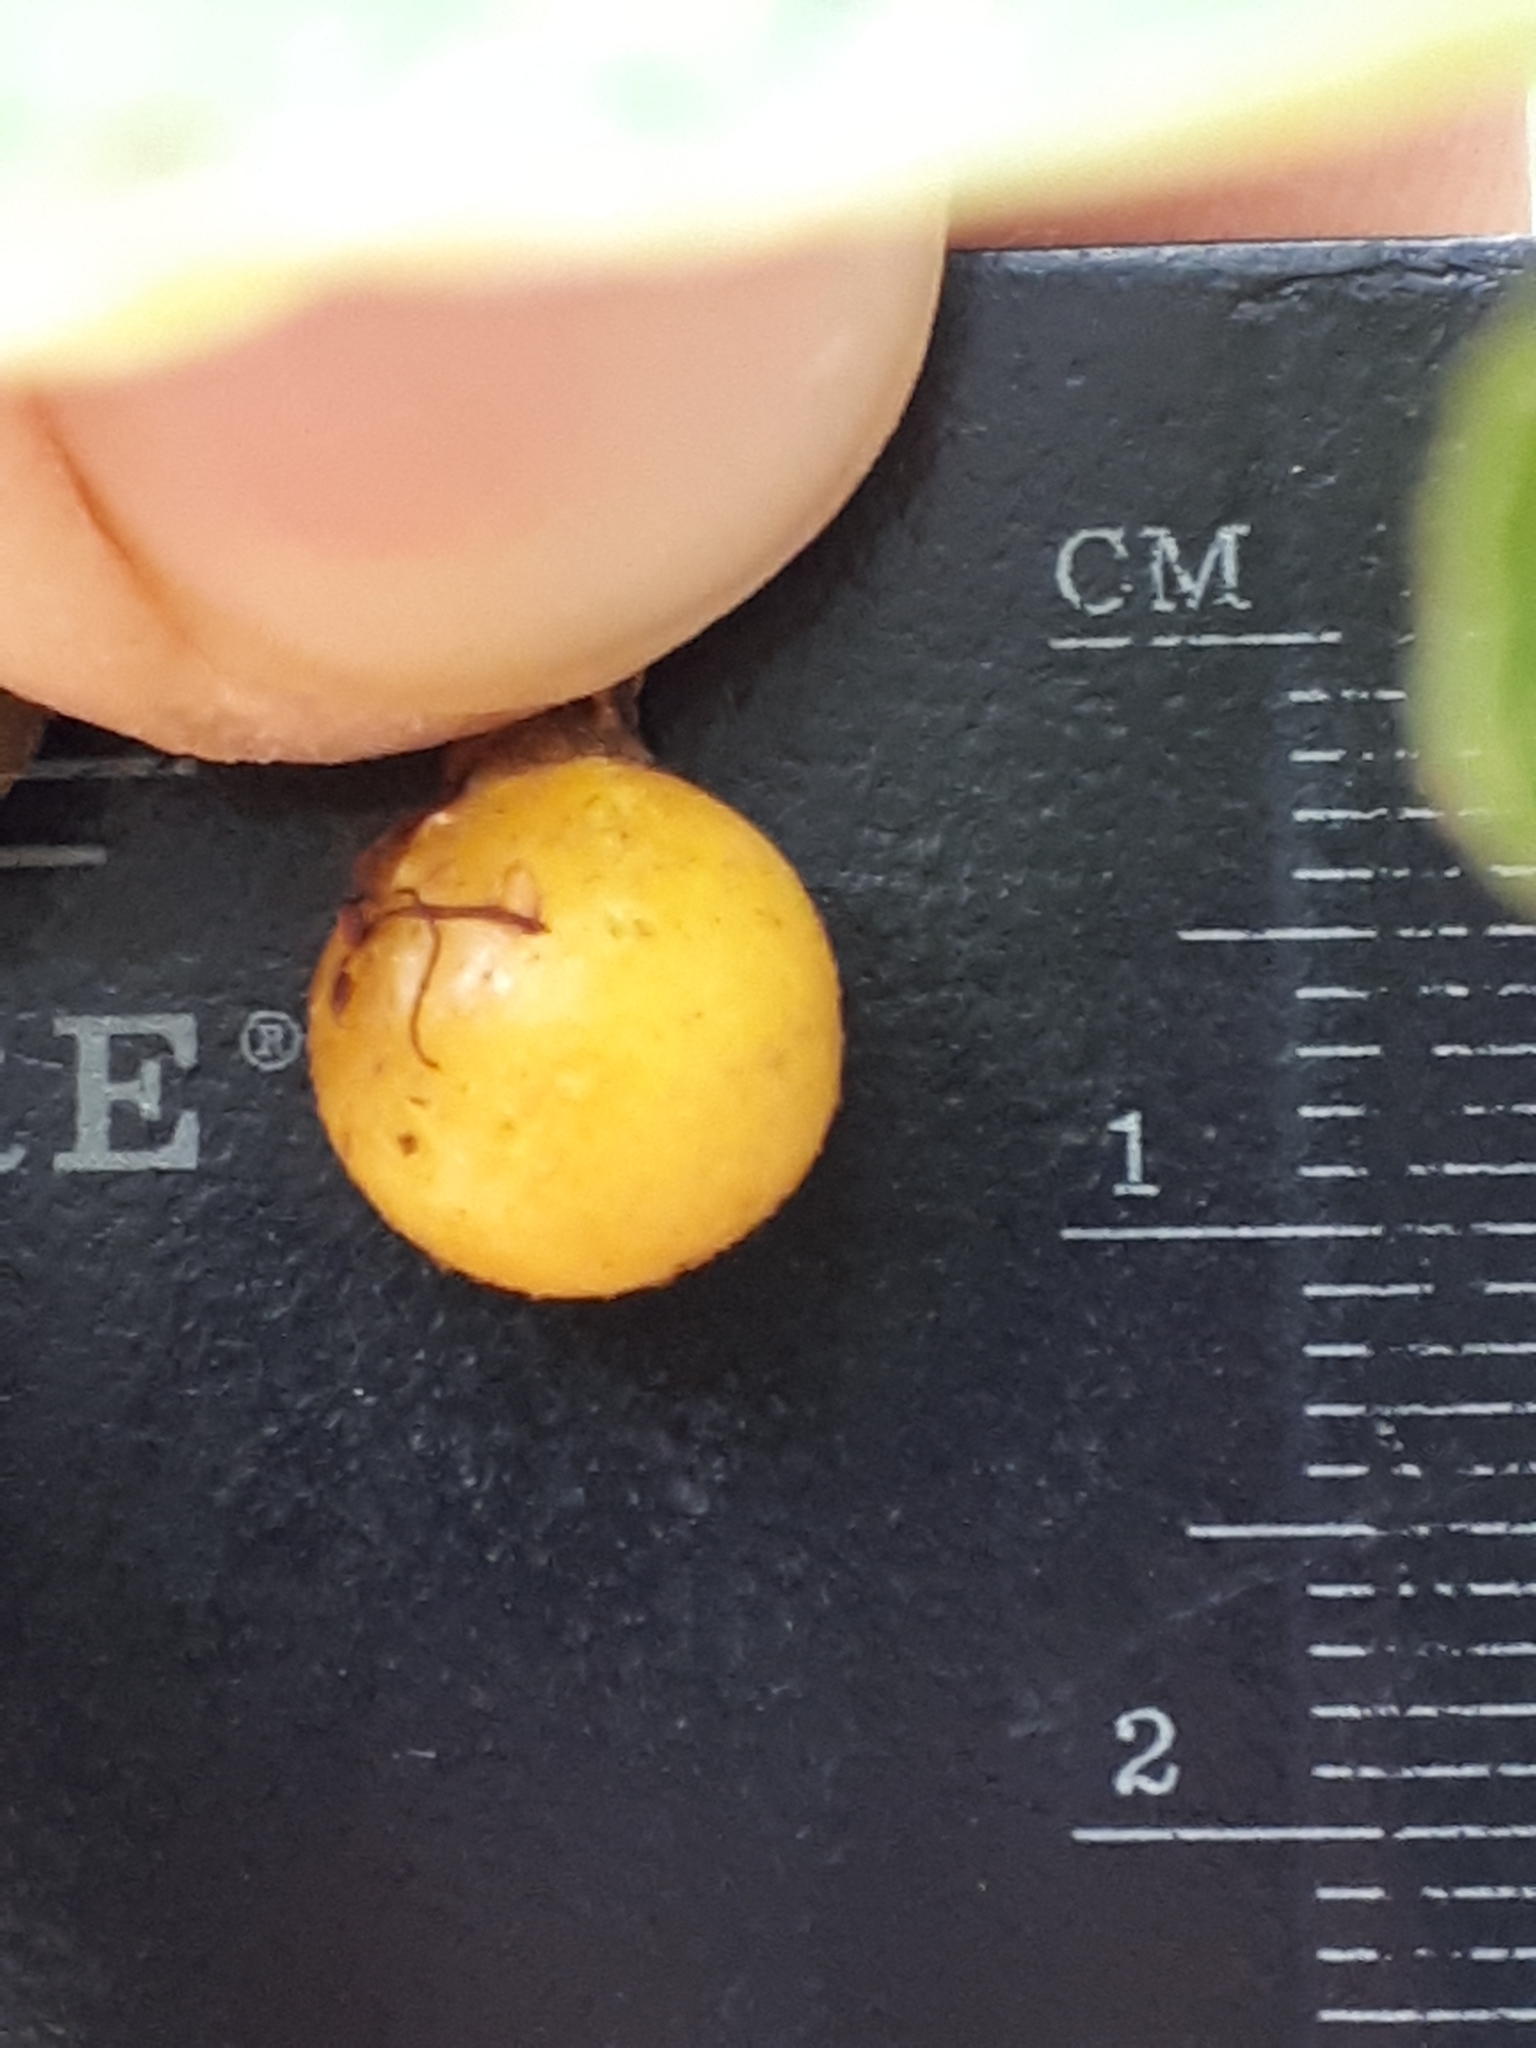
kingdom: Plantae
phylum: Tracheophyta
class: Magnoliopsida
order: Malvales
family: Malvaceae
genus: Grewia
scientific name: Grewia bicolor
